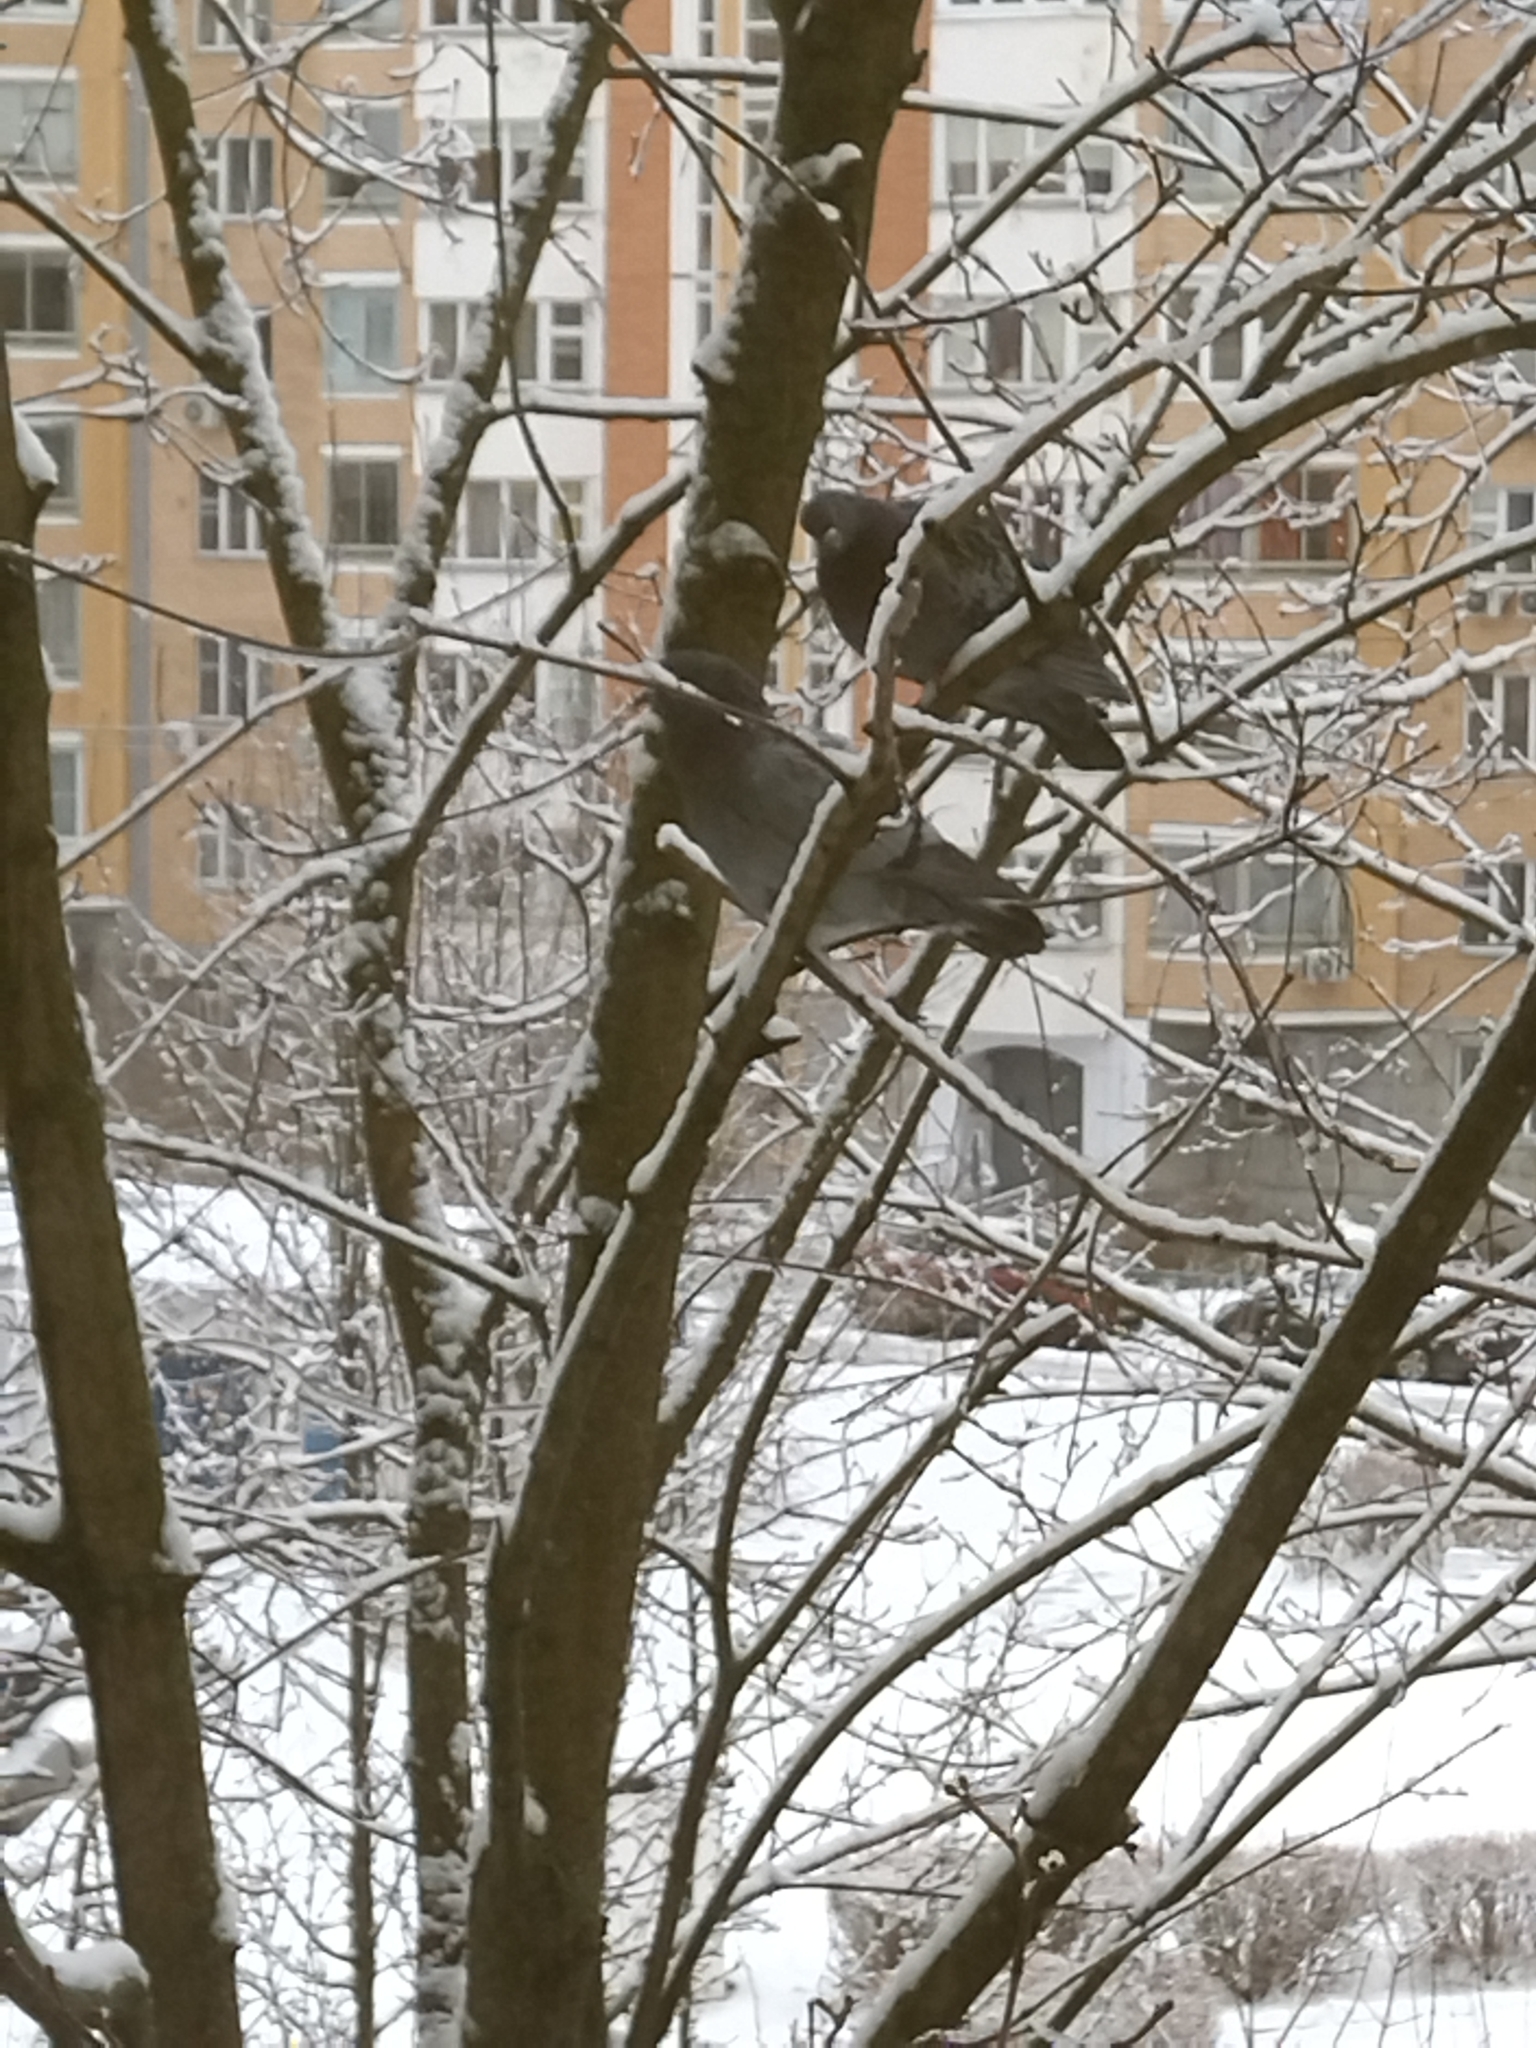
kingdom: Animalia
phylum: Chordata
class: Aves
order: Columbiformes
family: Columbidae
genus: Columba
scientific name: Columba livia
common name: Rock pigeon
